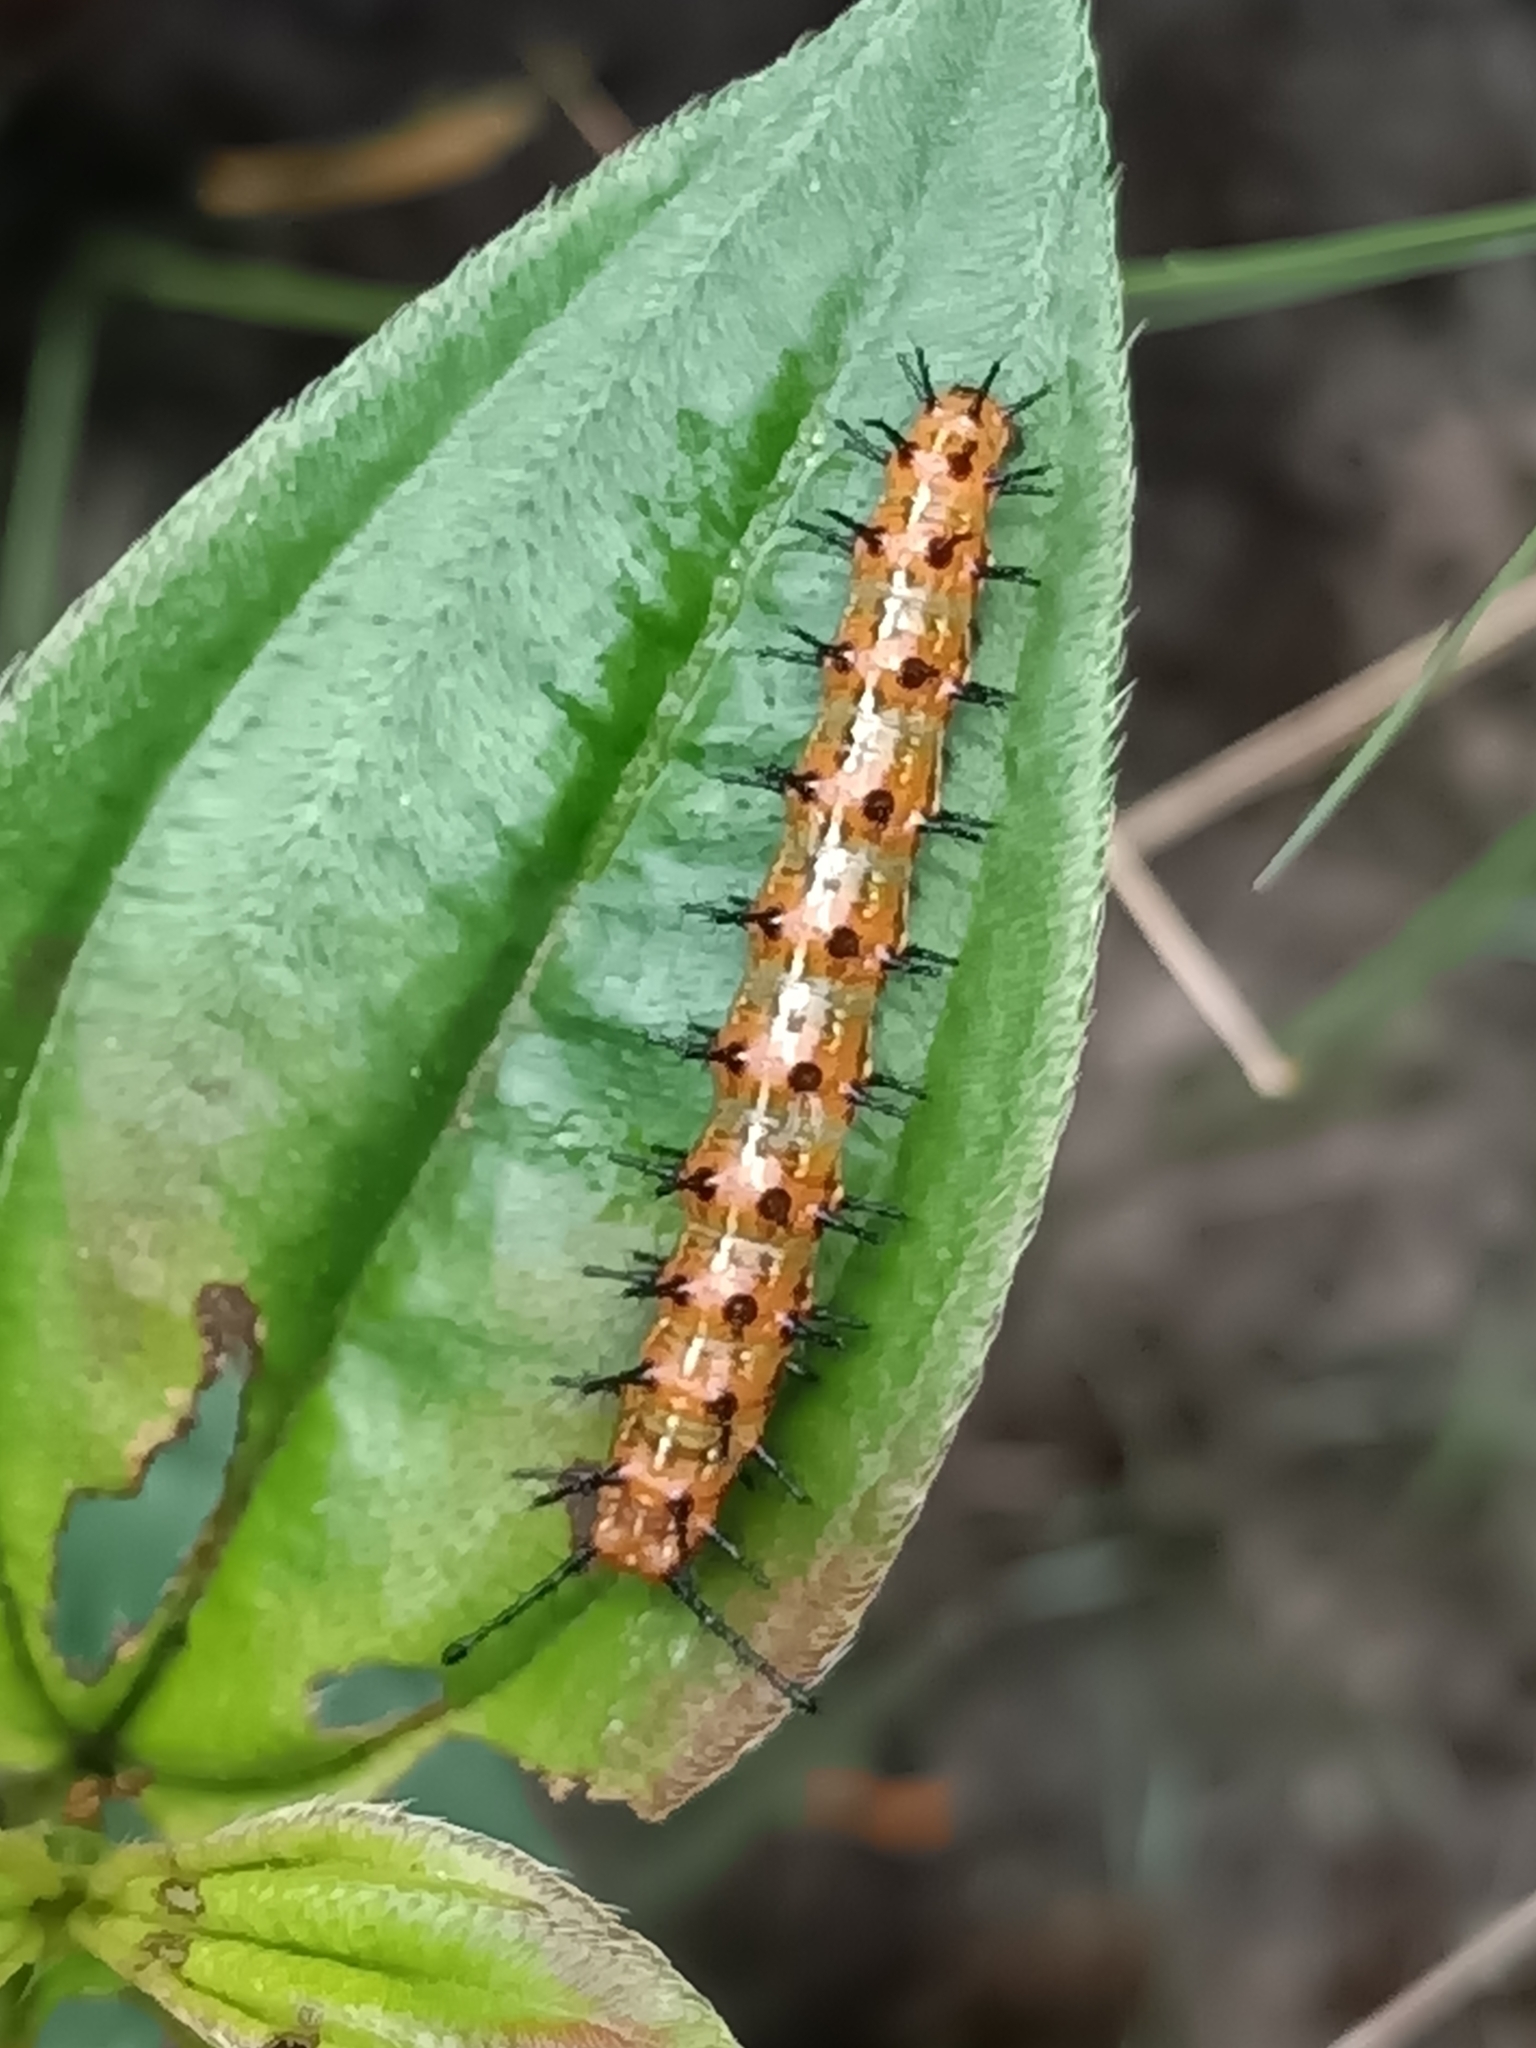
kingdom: Animalia
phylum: Arthropoda
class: Insecta
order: Lepidoptera
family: Nymphalidae
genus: Dione
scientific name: Dione vanillae
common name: Gulf fritillary
